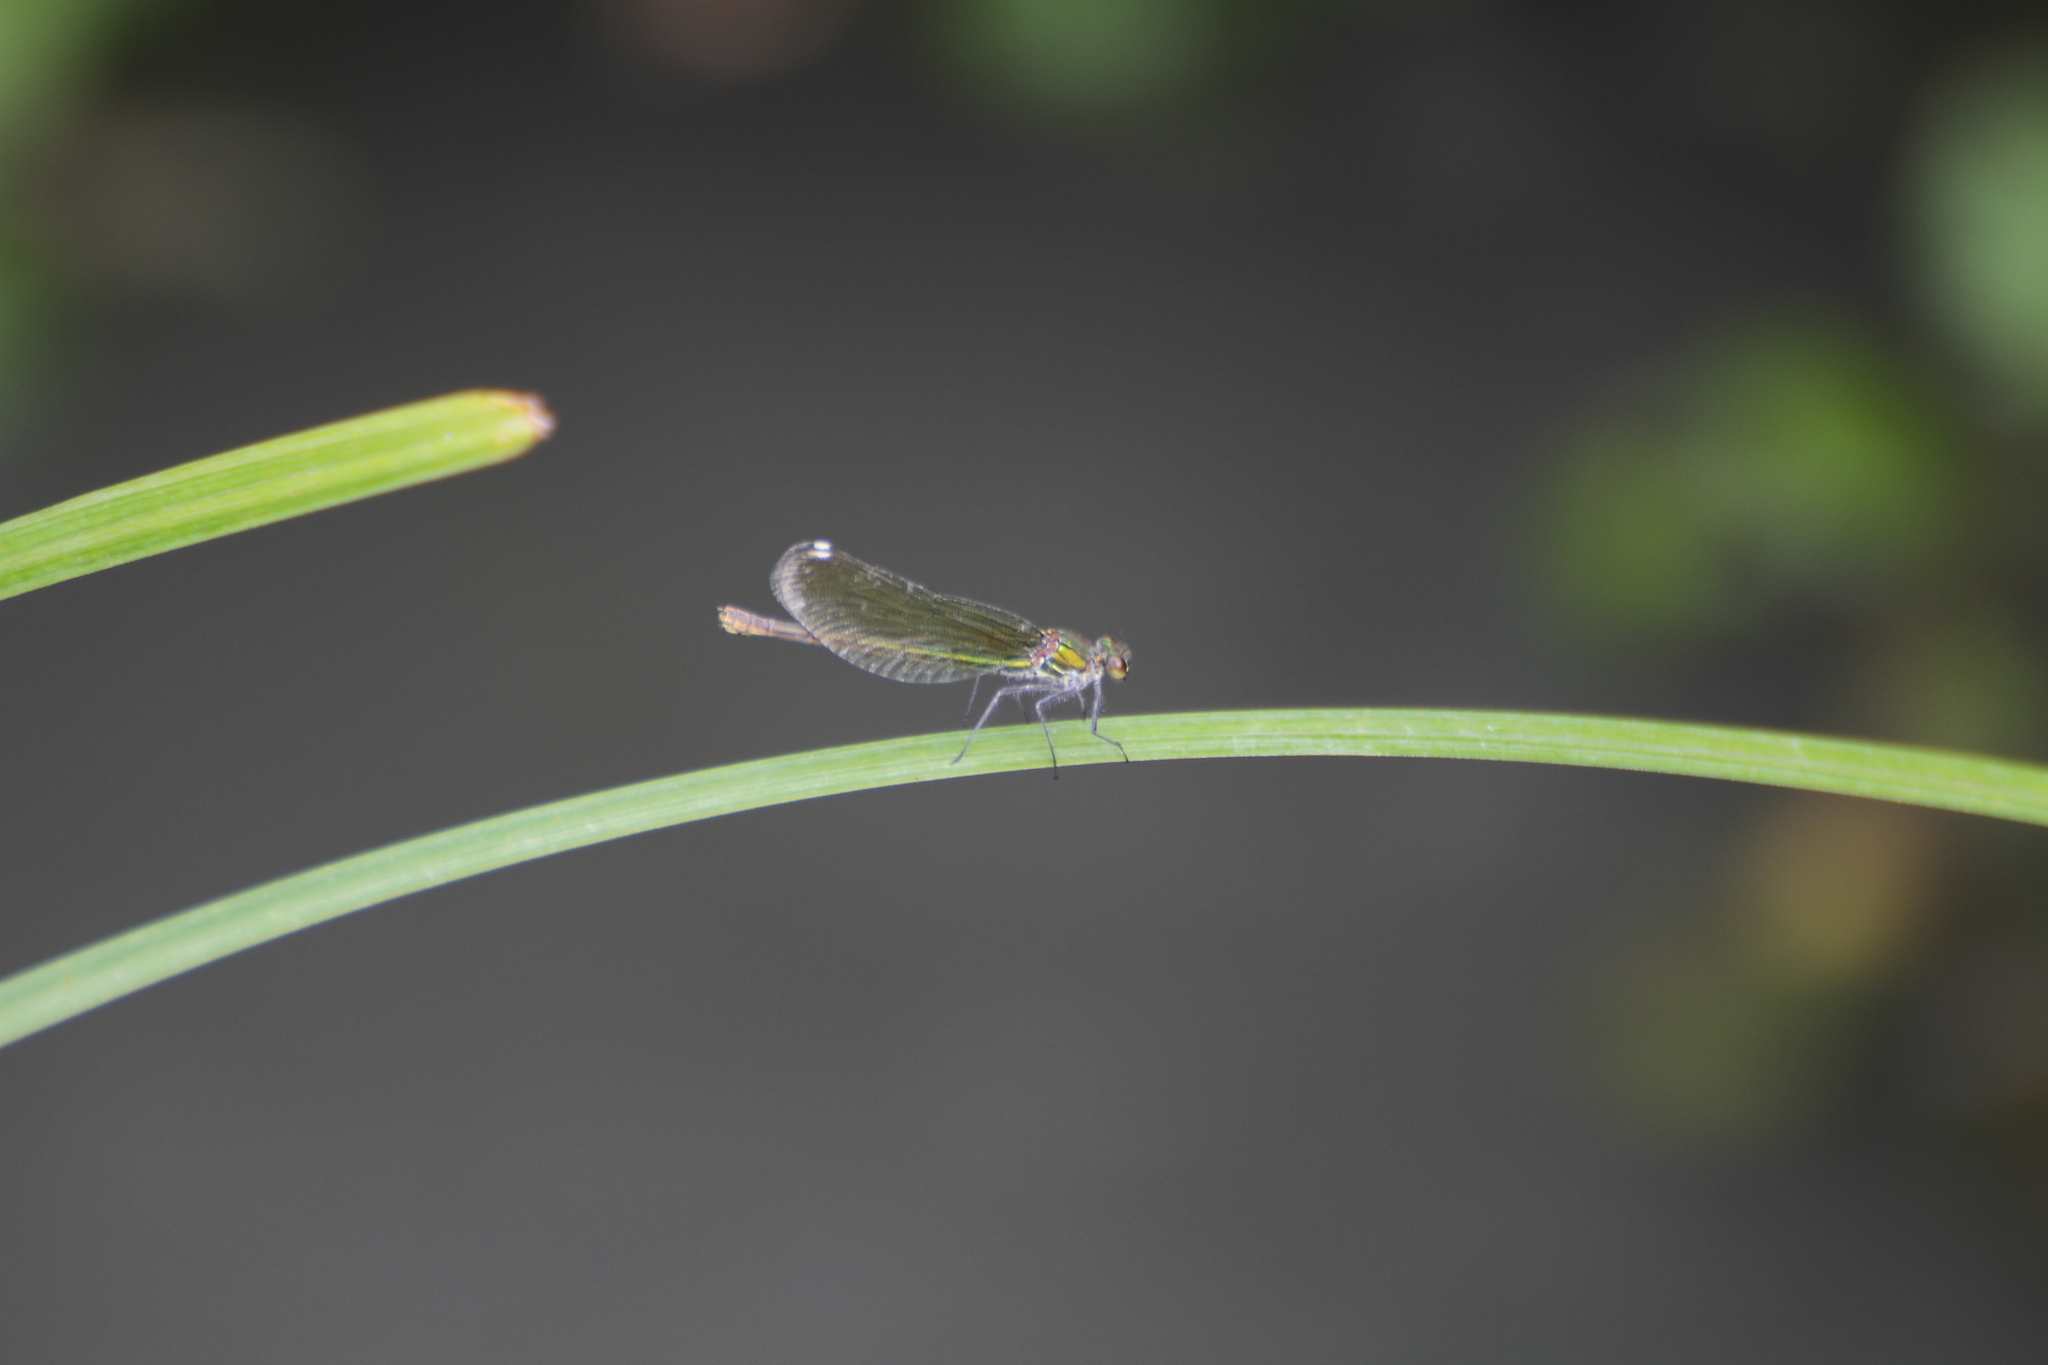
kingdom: Animalia
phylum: Arthropoda
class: Insecta
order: Odonata
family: Calopterygidae
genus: Calopteryx
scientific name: Calopteryx xanthostoma
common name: Western demoiselle
